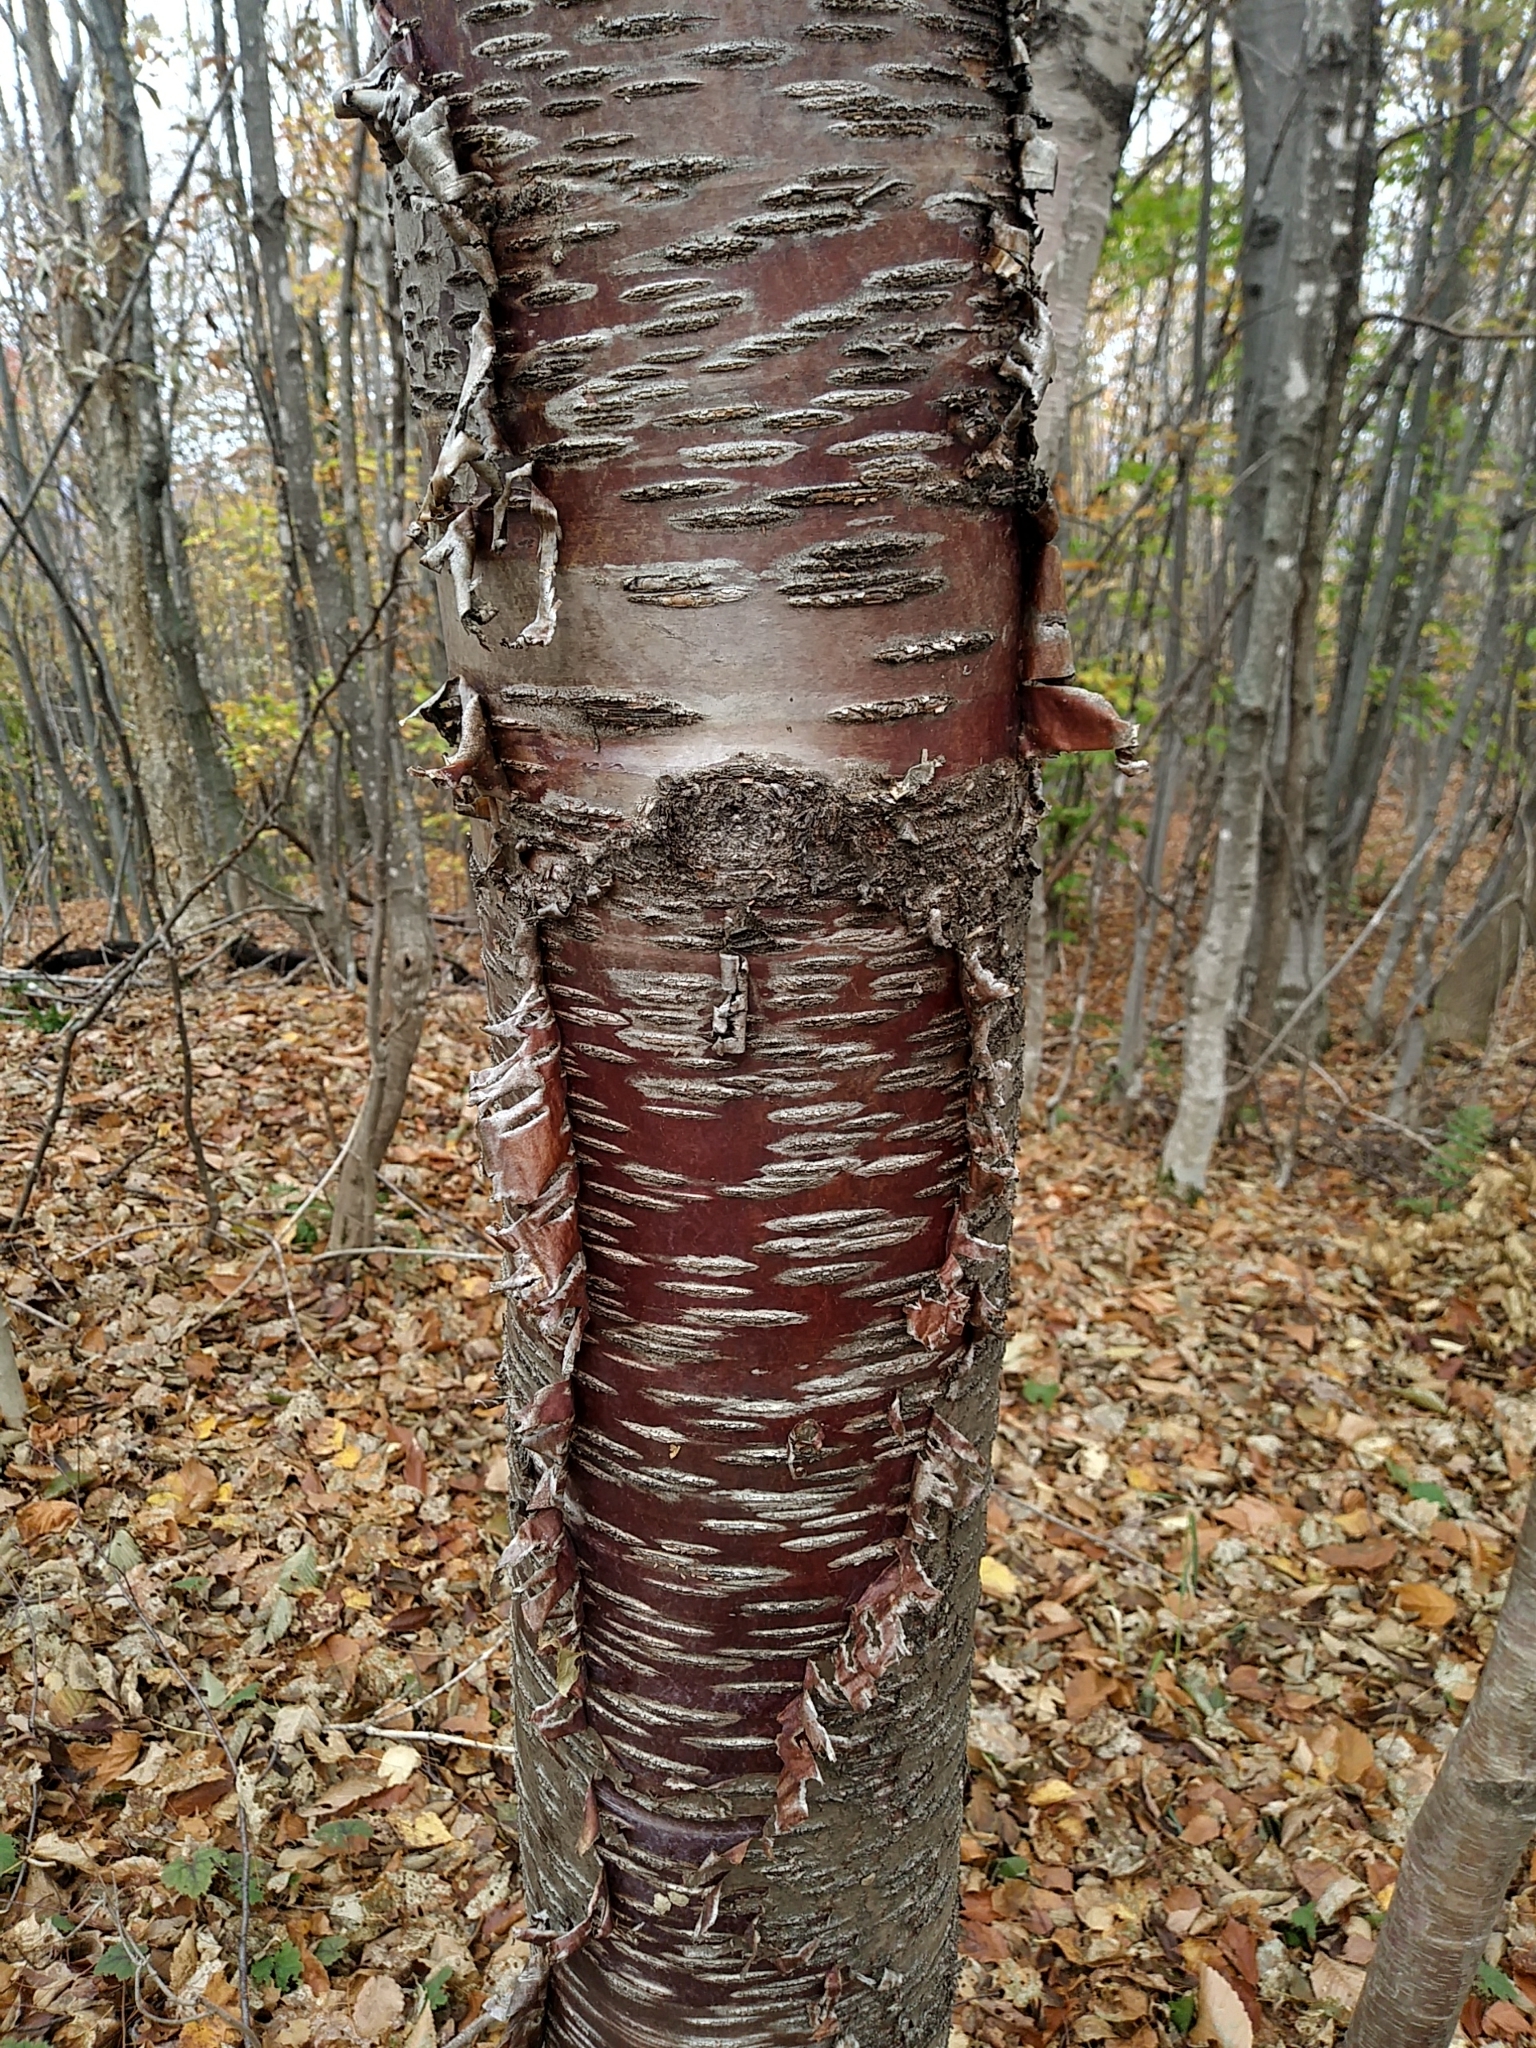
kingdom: Plantae
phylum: Tracheophyta
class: Magnoliopsida
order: Fagales
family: Betulaceae
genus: Betula
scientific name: Betula cordifolia
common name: Mountain white birch
